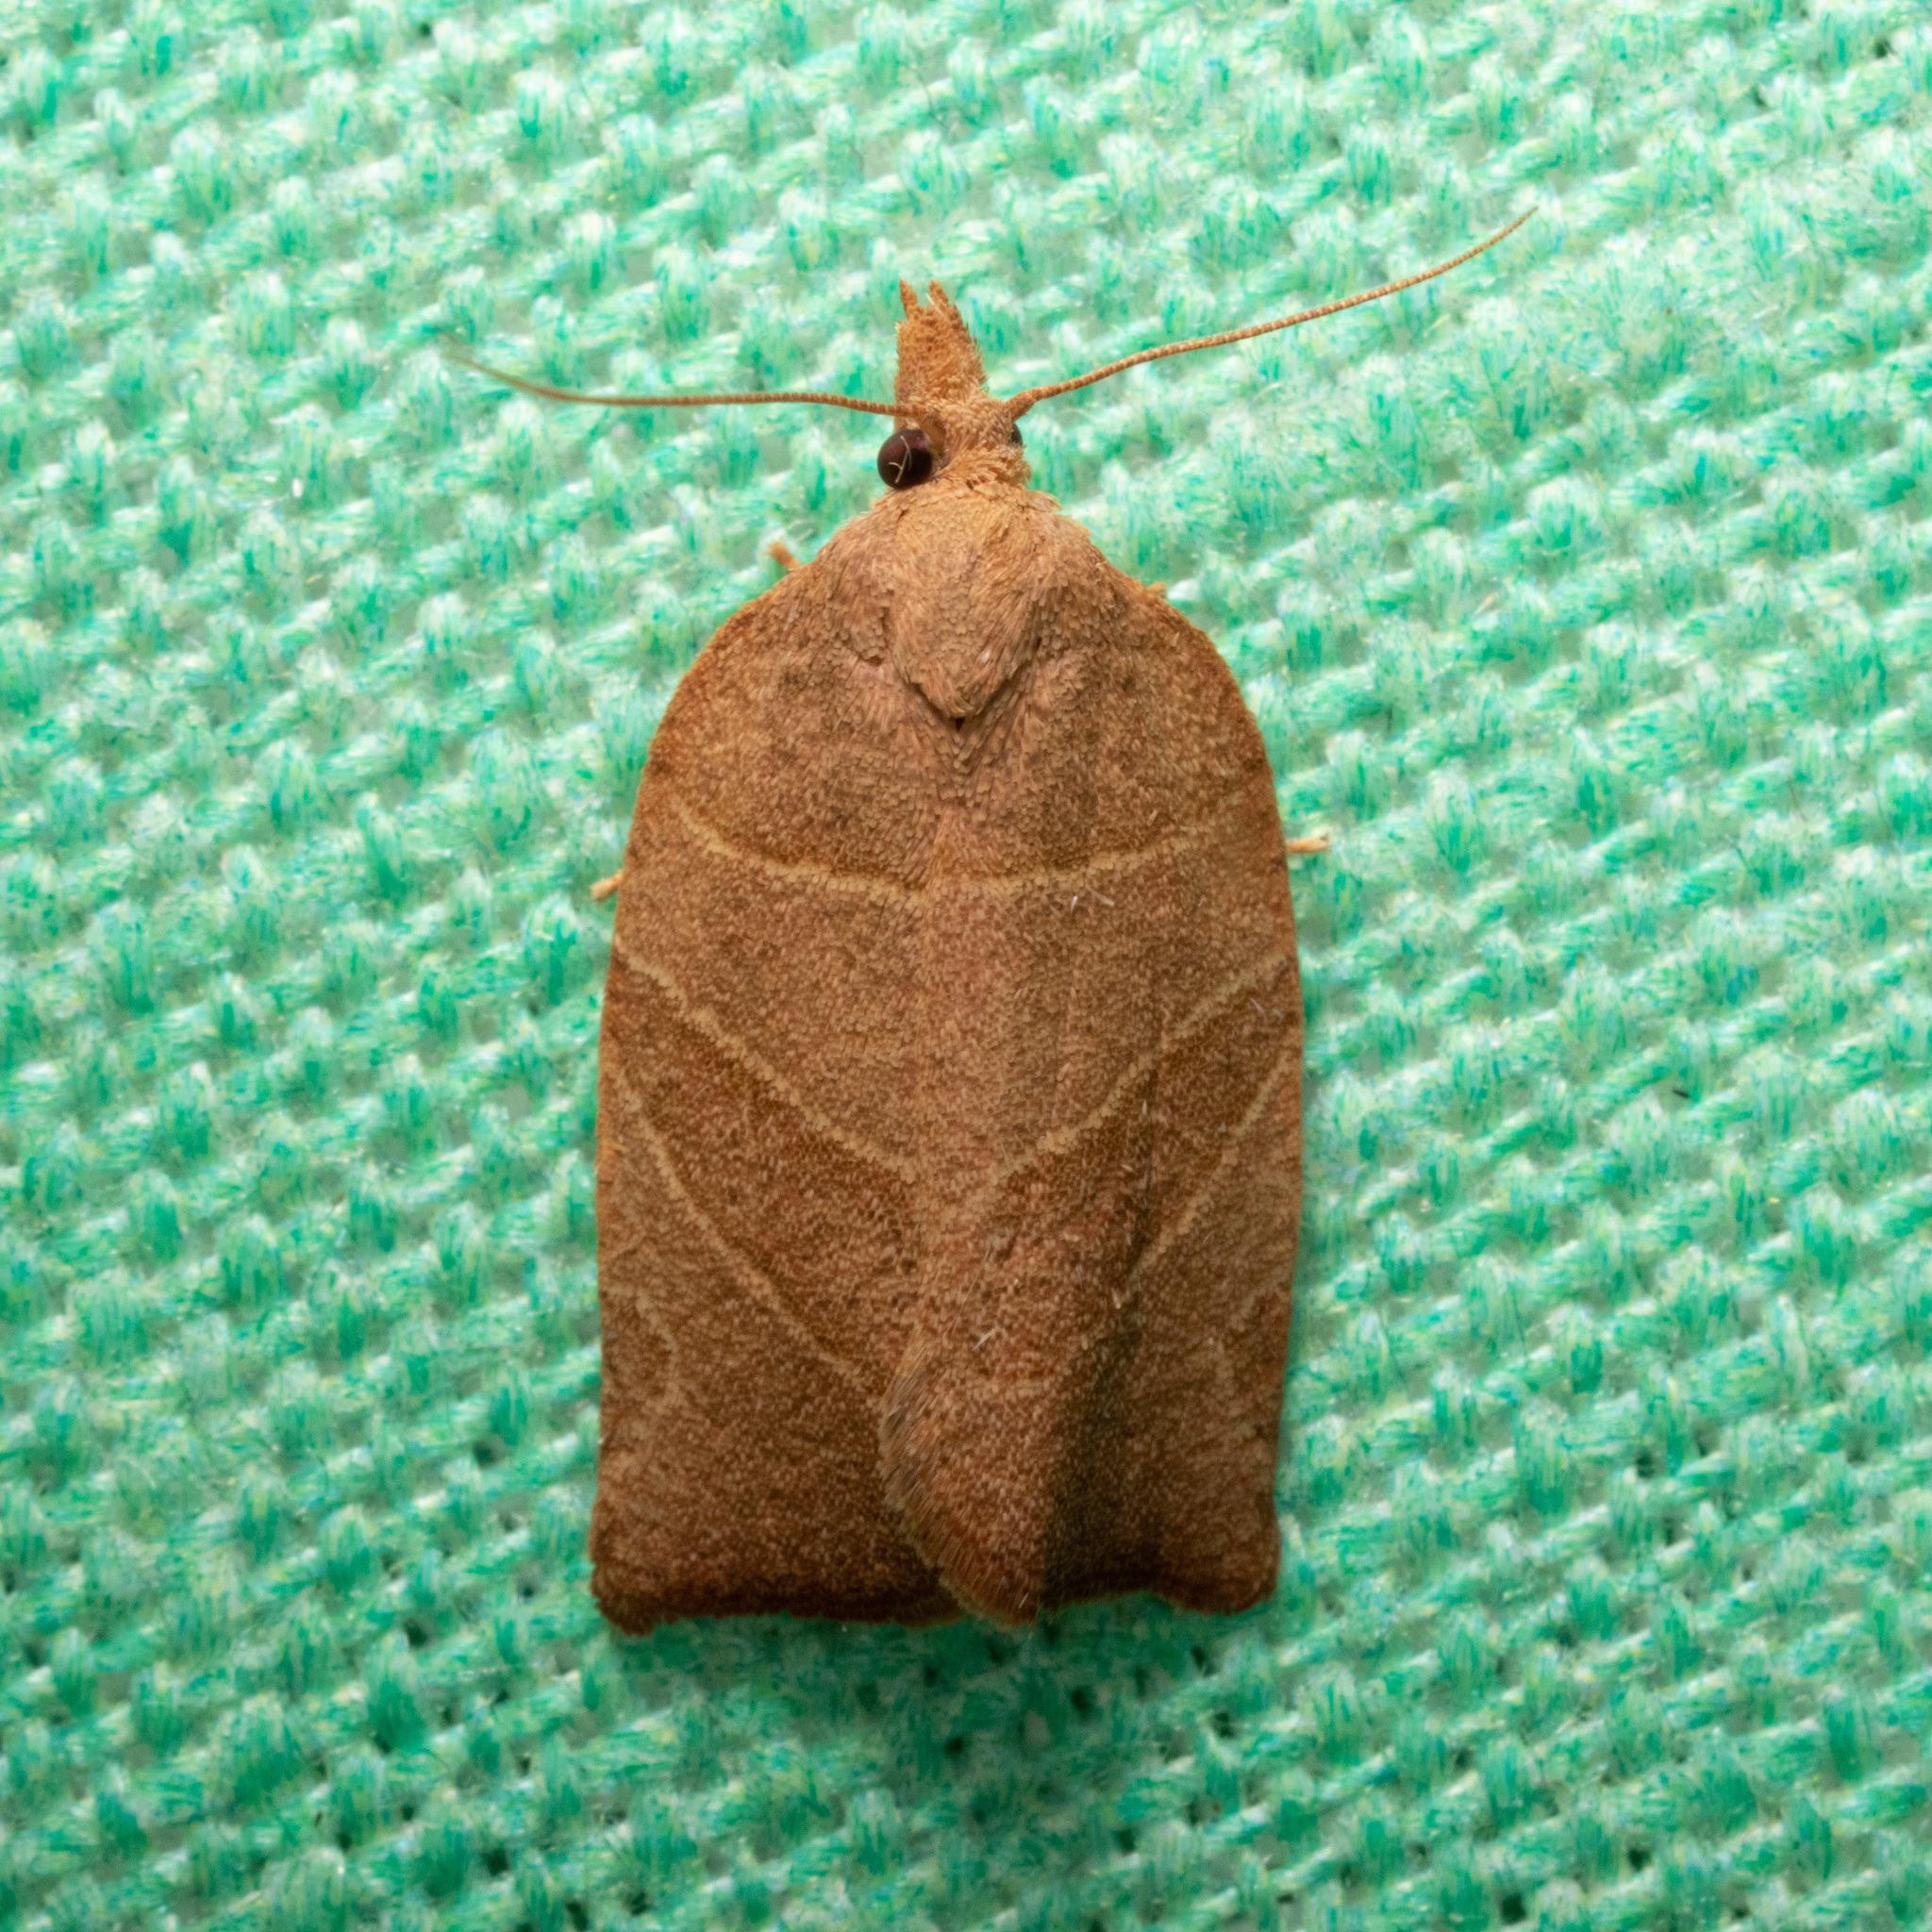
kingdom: Animalia
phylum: Arthropoda
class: Insecta
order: Lepidoptera
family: Tortricidae
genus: Pandemis
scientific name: Pandemis limitata
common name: Three-lined leafroller moth
